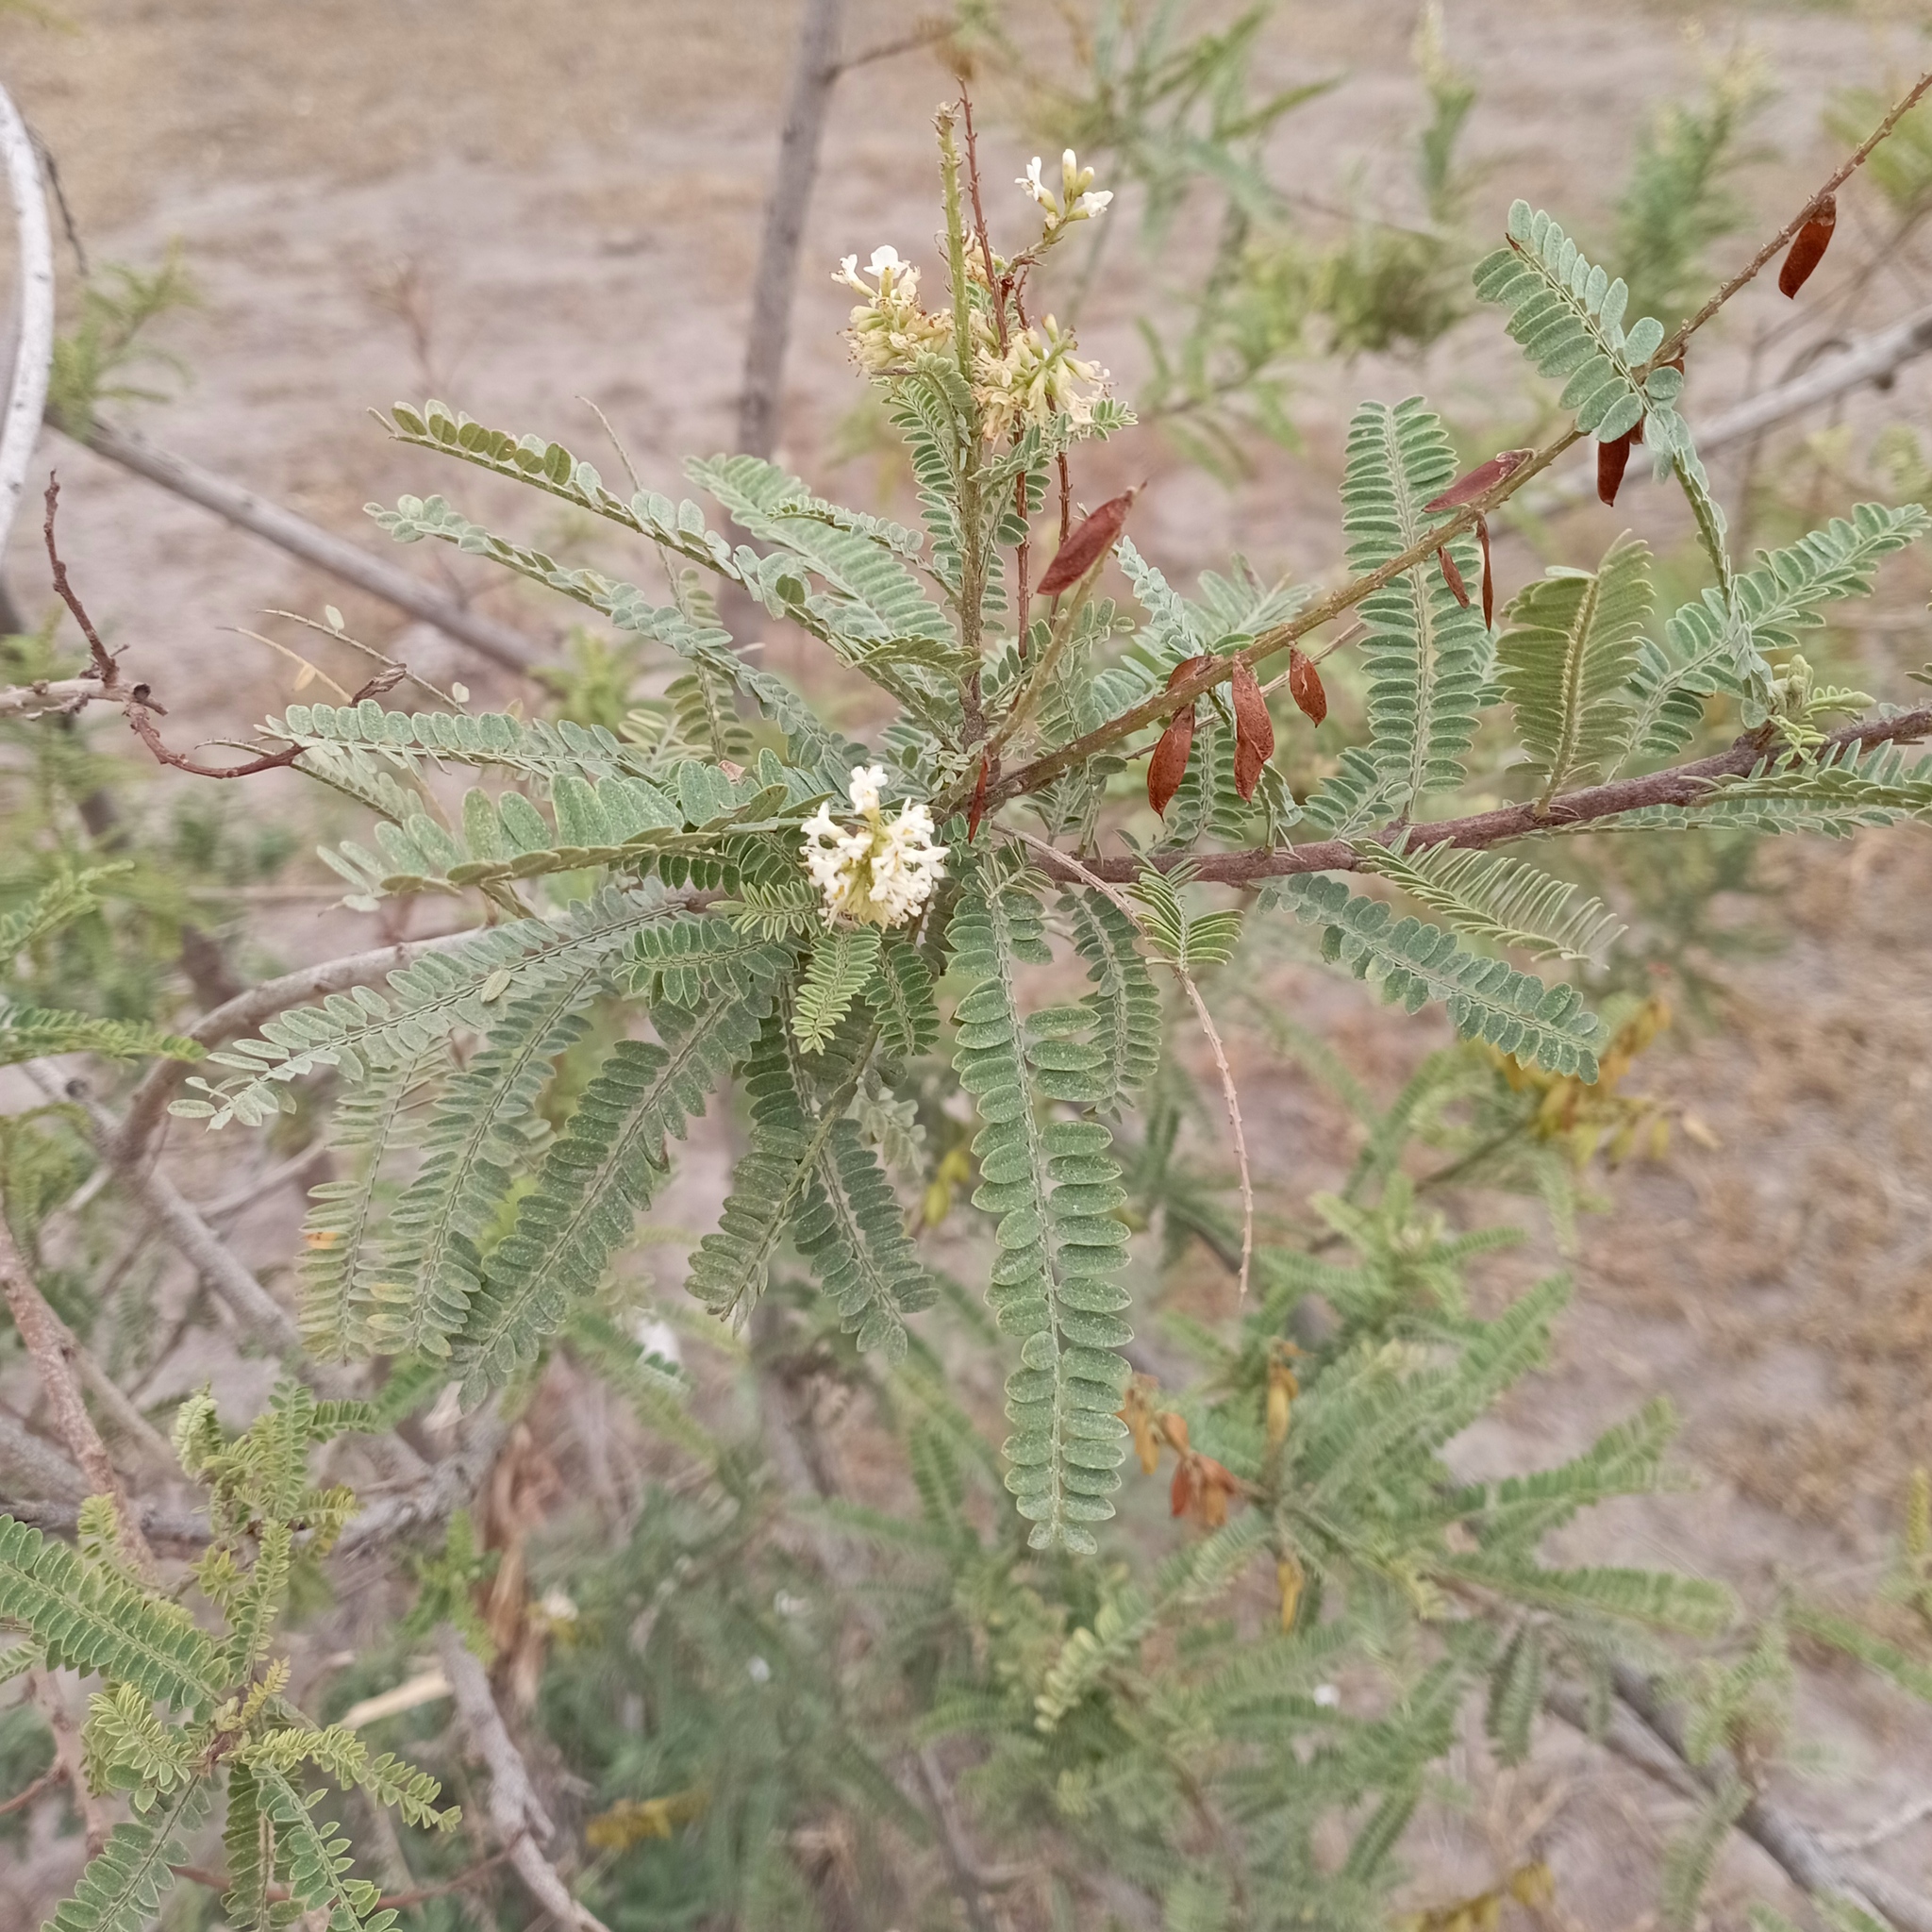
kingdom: Plantae
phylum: Tracheophyta
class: Magnoliopsida
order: Fabales
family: Fabaceae
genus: Eysenhardtia
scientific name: Eysenhardtia polystachya
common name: Kidneywood
